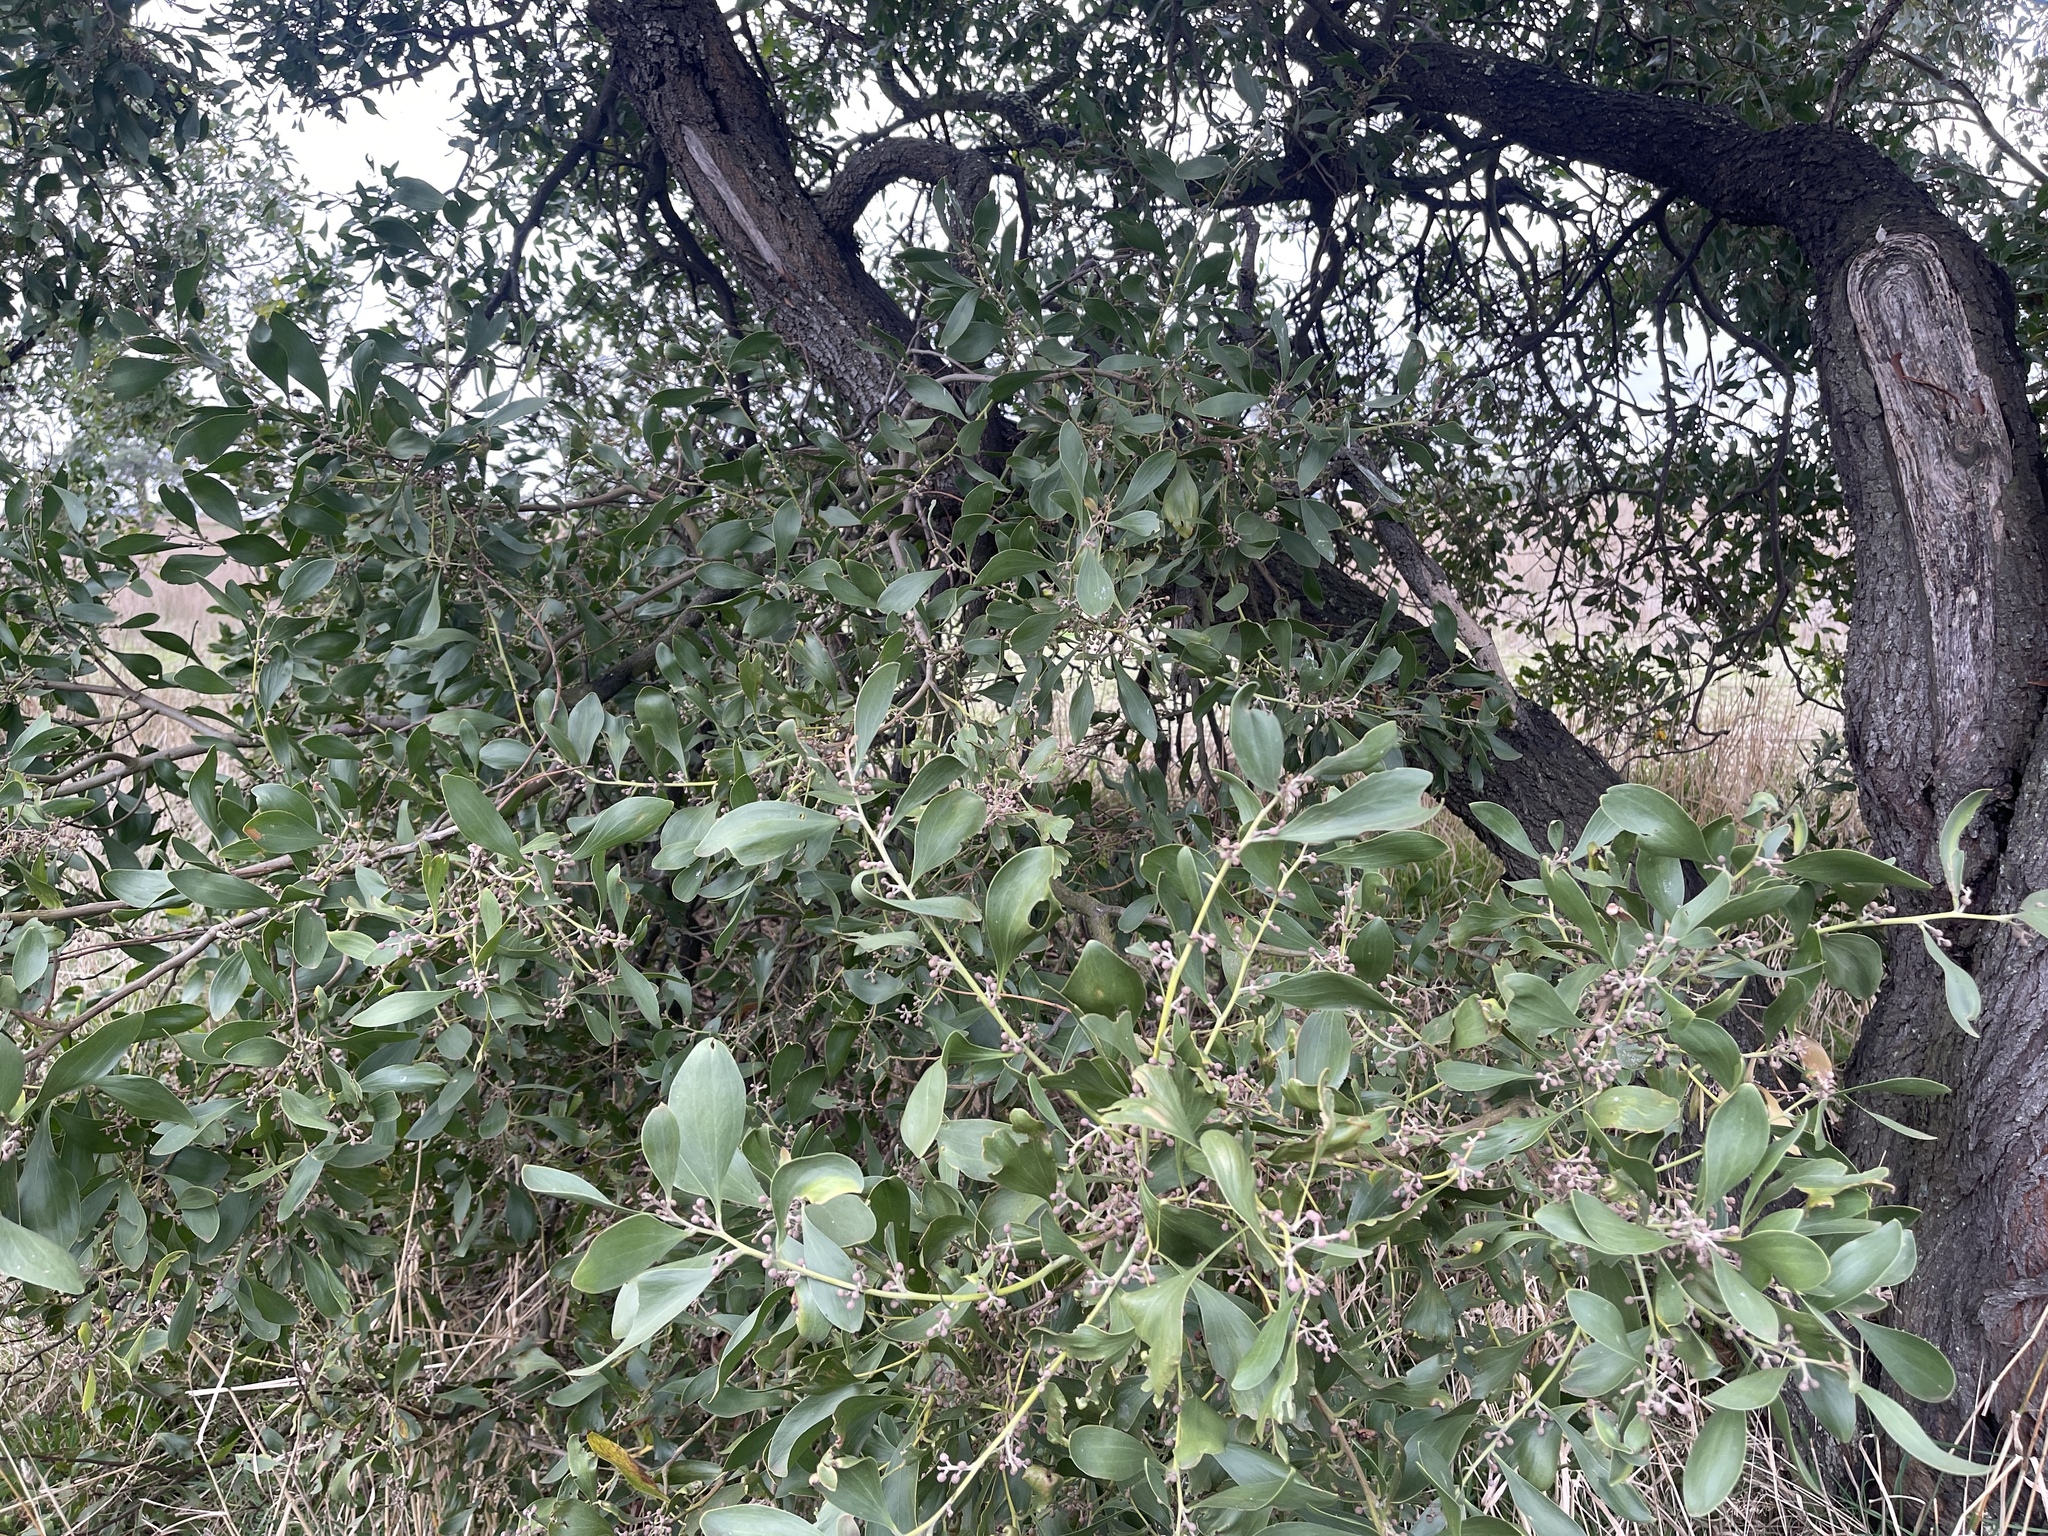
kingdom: Plantae
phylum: Tracheophyta
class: Magnoliopsida
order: Fabales
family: Fabaceae
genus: Acacia
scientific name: Acacia melanoxylon
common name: Blackwood
